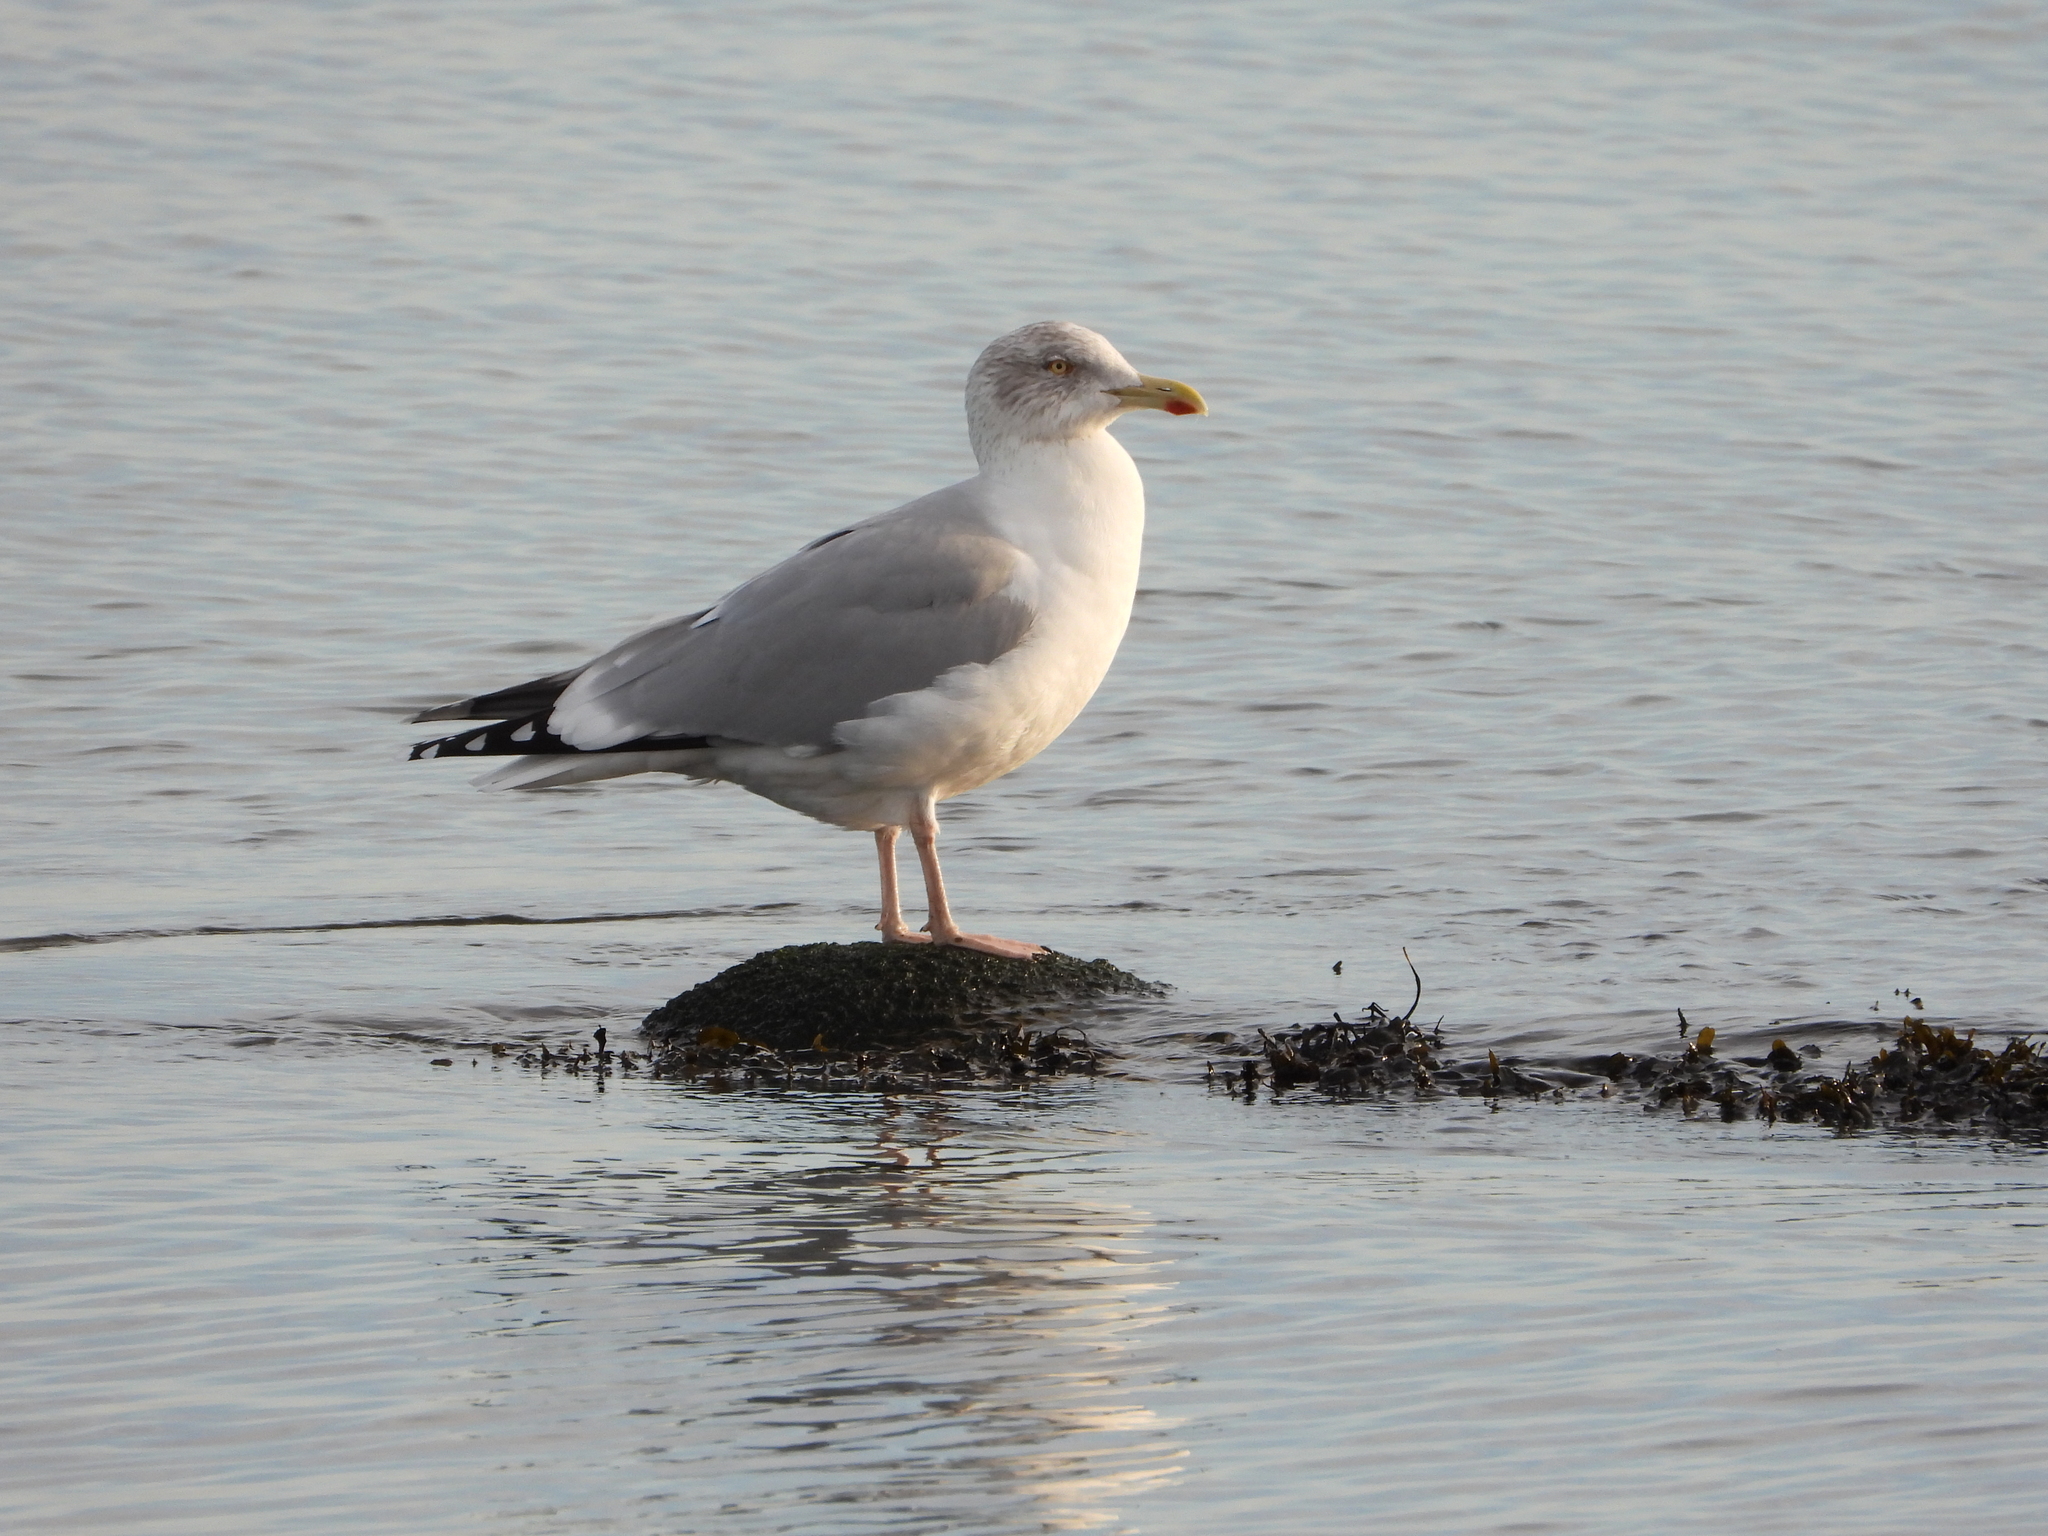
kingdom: Animalia
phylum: Chordata
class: Aves
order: Charadriiformes
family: Laridae
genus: Larus
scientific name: Larus argentatus
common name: Herring gull
